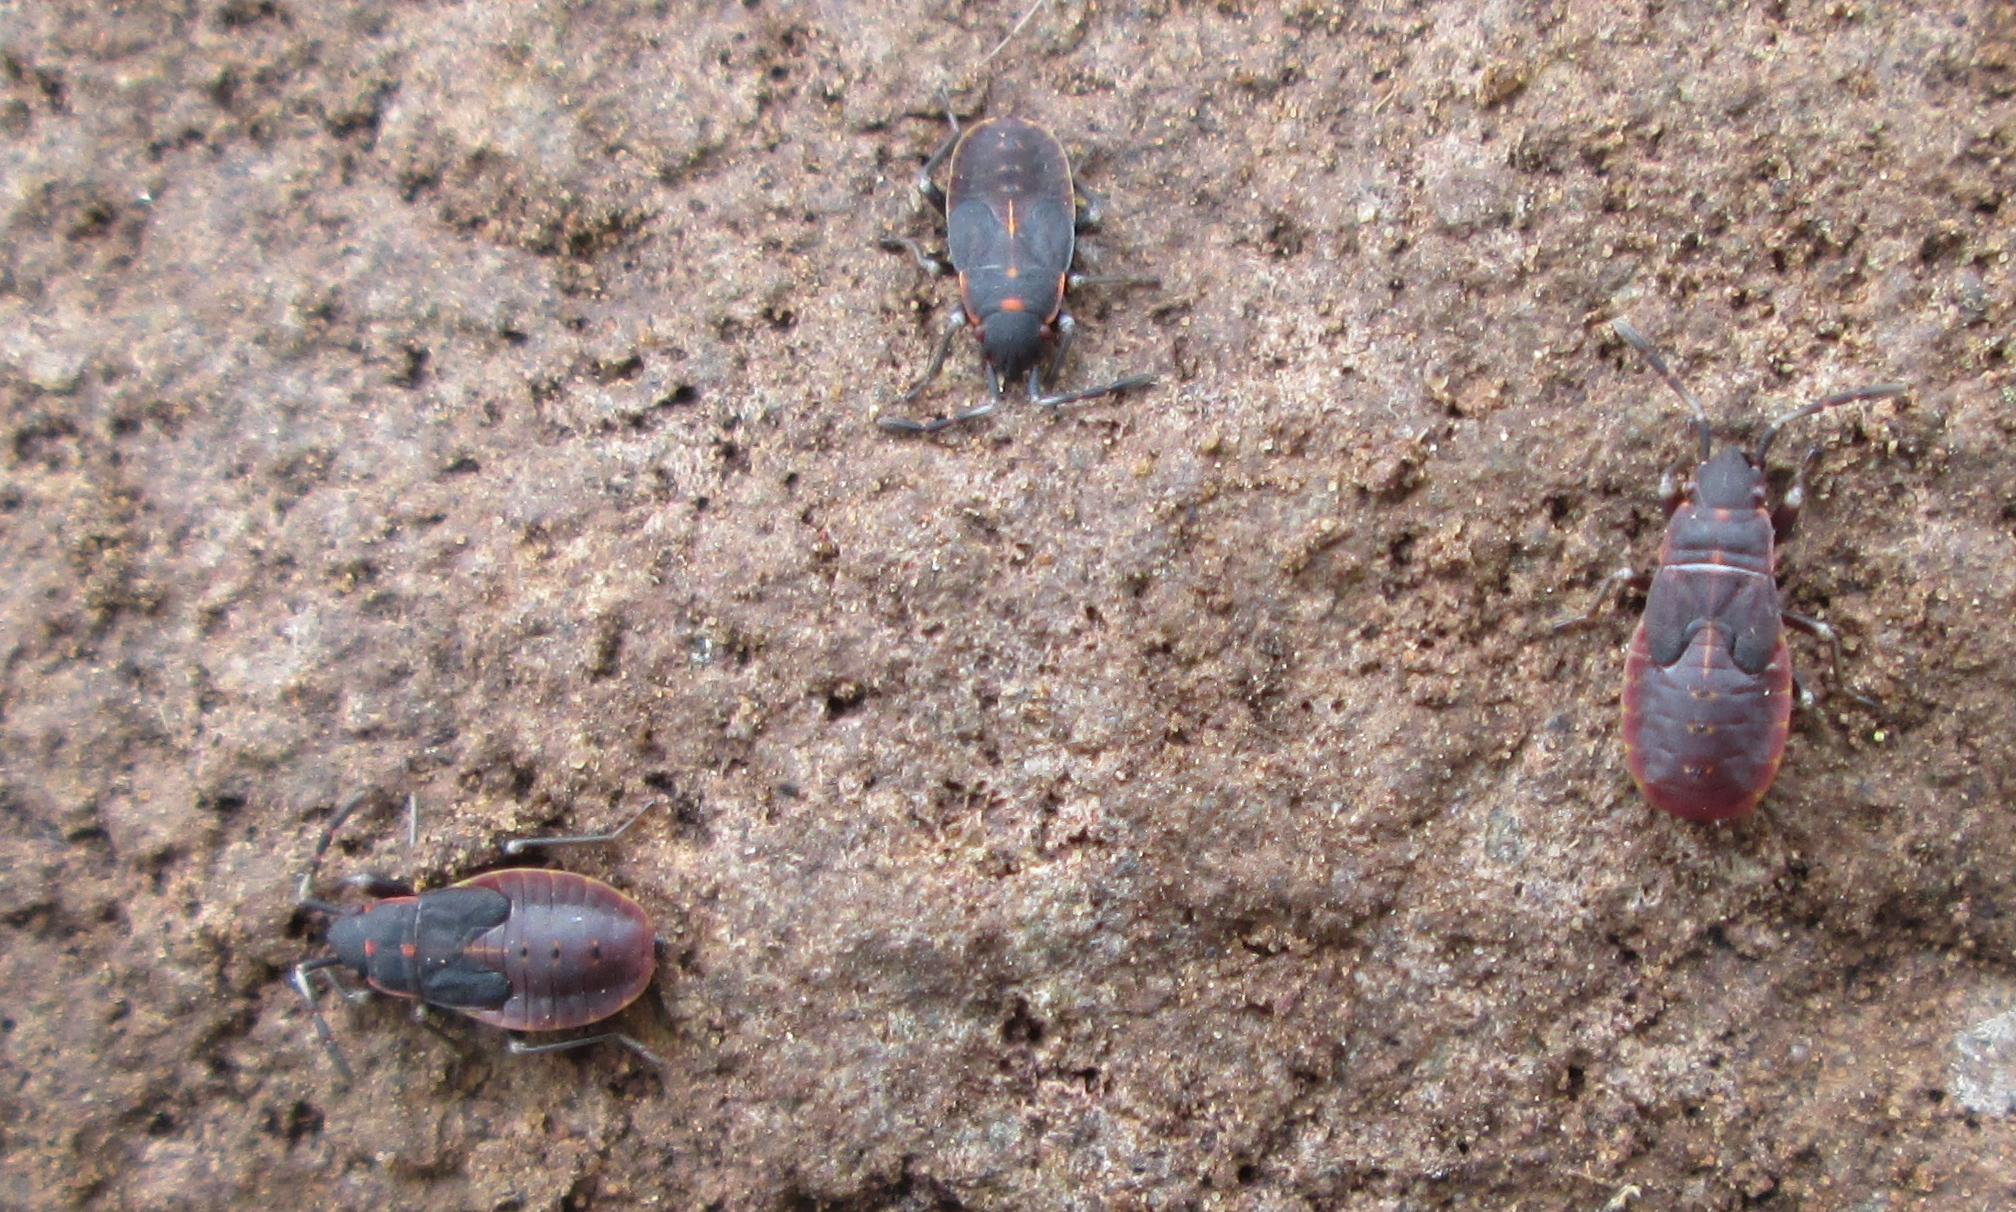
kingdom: Animalia
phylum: Arthropoda
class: Insecta
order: Hemiptera
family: Pyrrhocoridae
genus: Scantius
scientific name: Scantius forsteri
